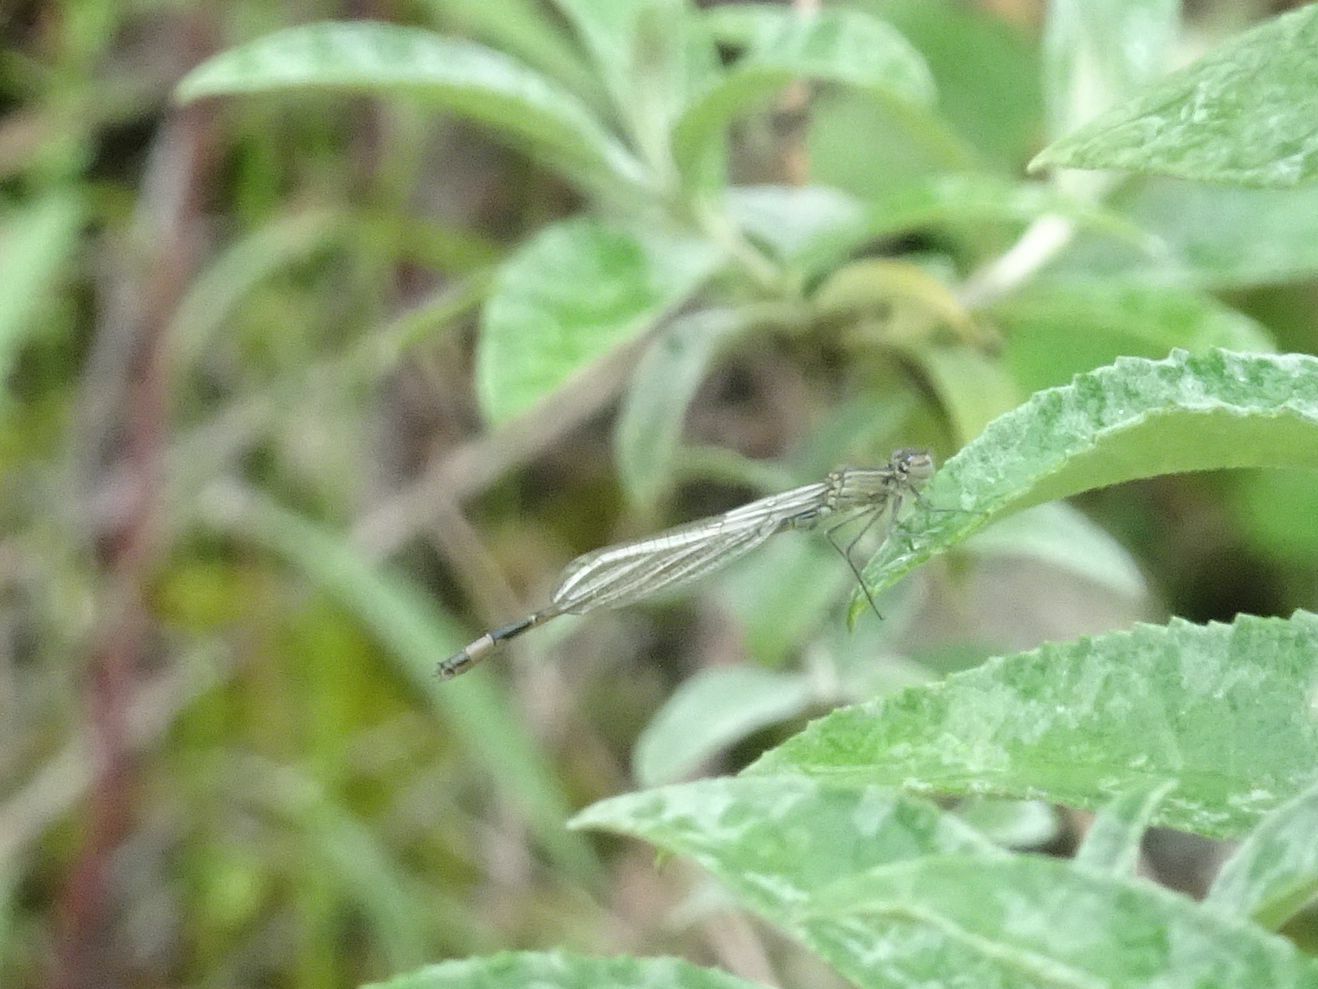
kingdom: Animalia
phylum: Arthropoda
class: Insecta
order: Odonata
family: Coenagrionidae
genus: Ischnura
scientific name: Ischnura elegans
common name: Blue-tailed damselfly
